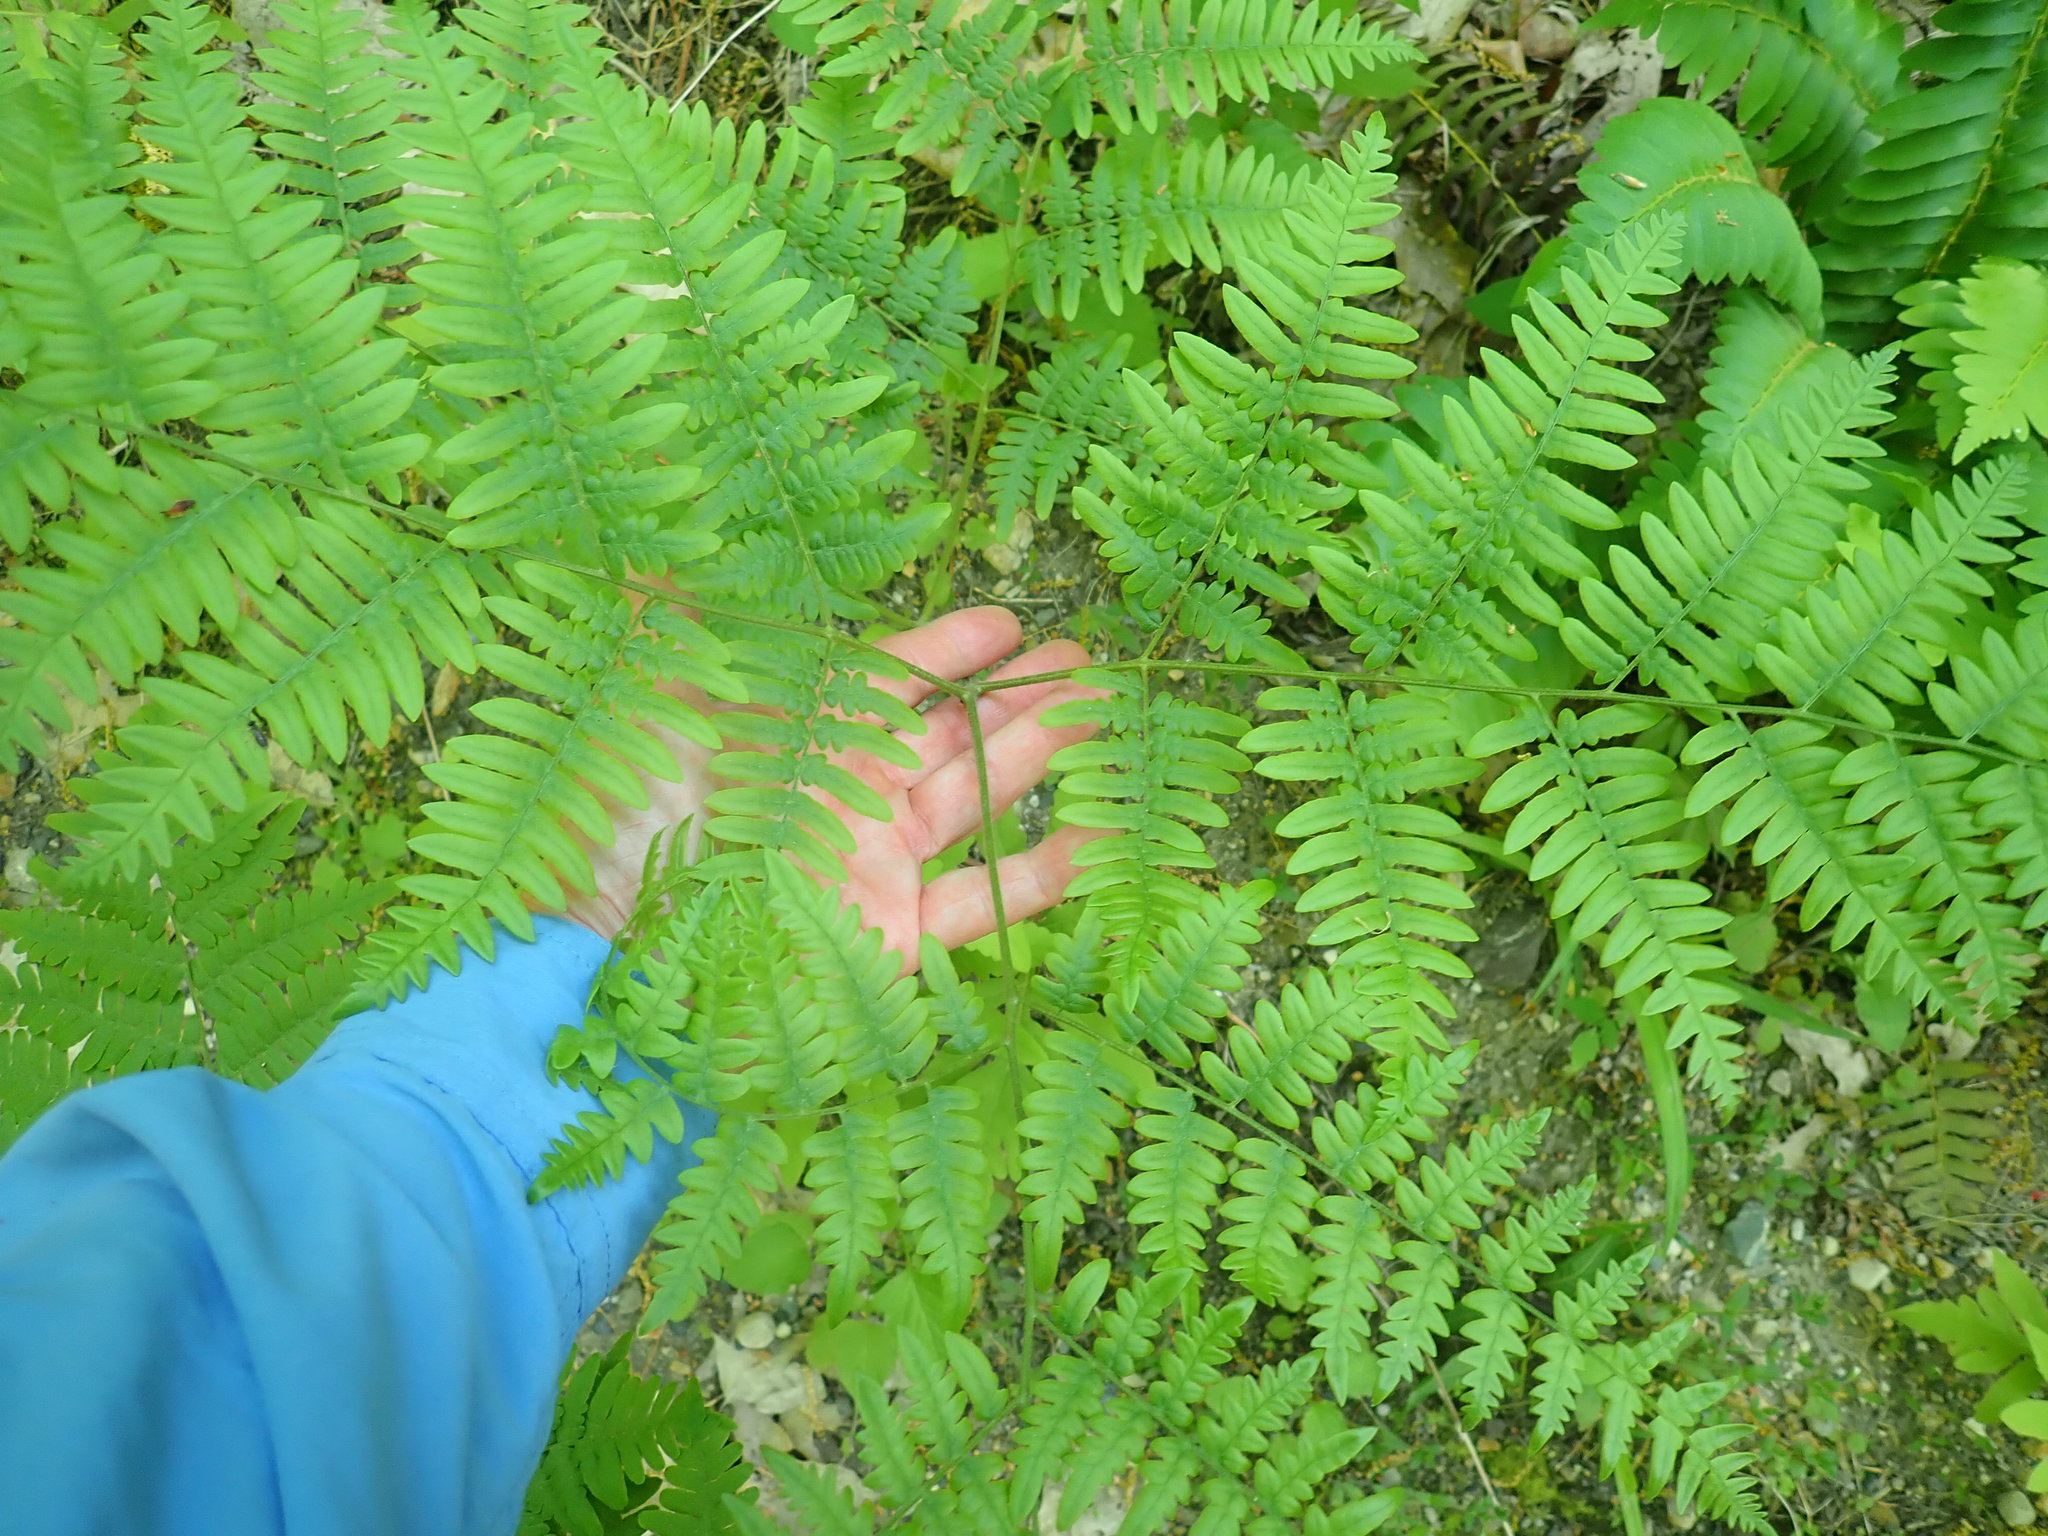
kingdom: Plantae
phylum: Tracheophyta
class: Polypodiopsida
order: Polypodiales
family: Dennstaedtiaceae
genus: Pteridium
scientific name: Pteridium aquilinum
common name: Bracken
